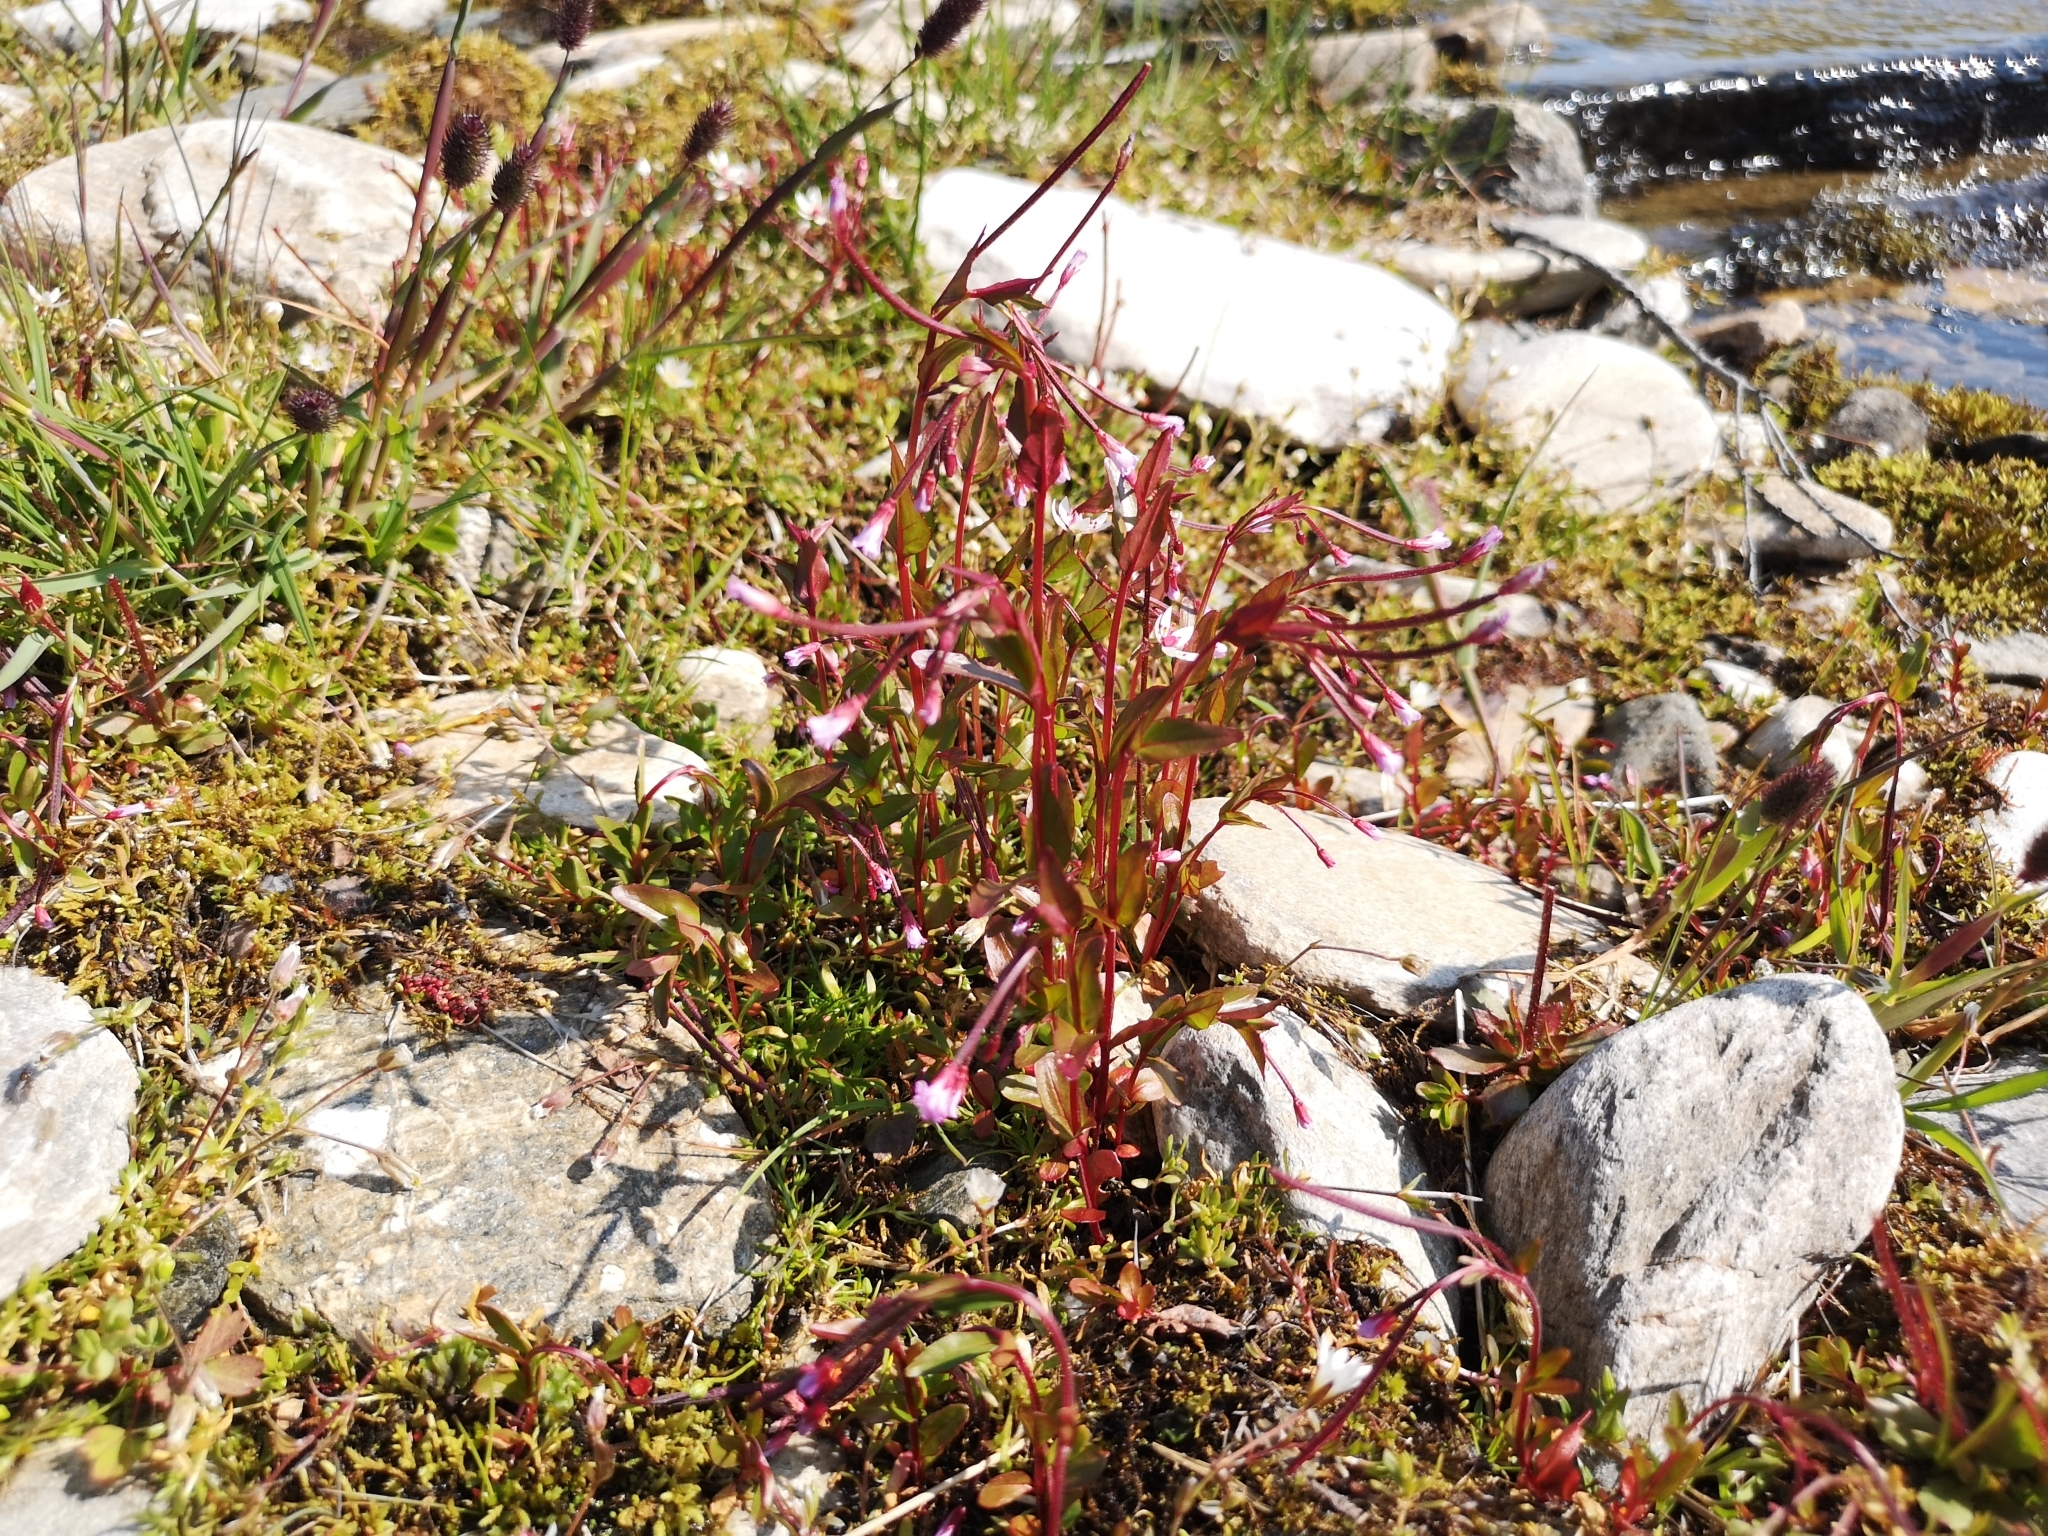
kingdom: Plantae
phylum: Tracheophyta
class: Magnoliopsida
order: Myrtales
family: Onagraceae
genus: Epilobium
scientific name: Epilobium hornemannii
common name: Hornemann's willowherb
